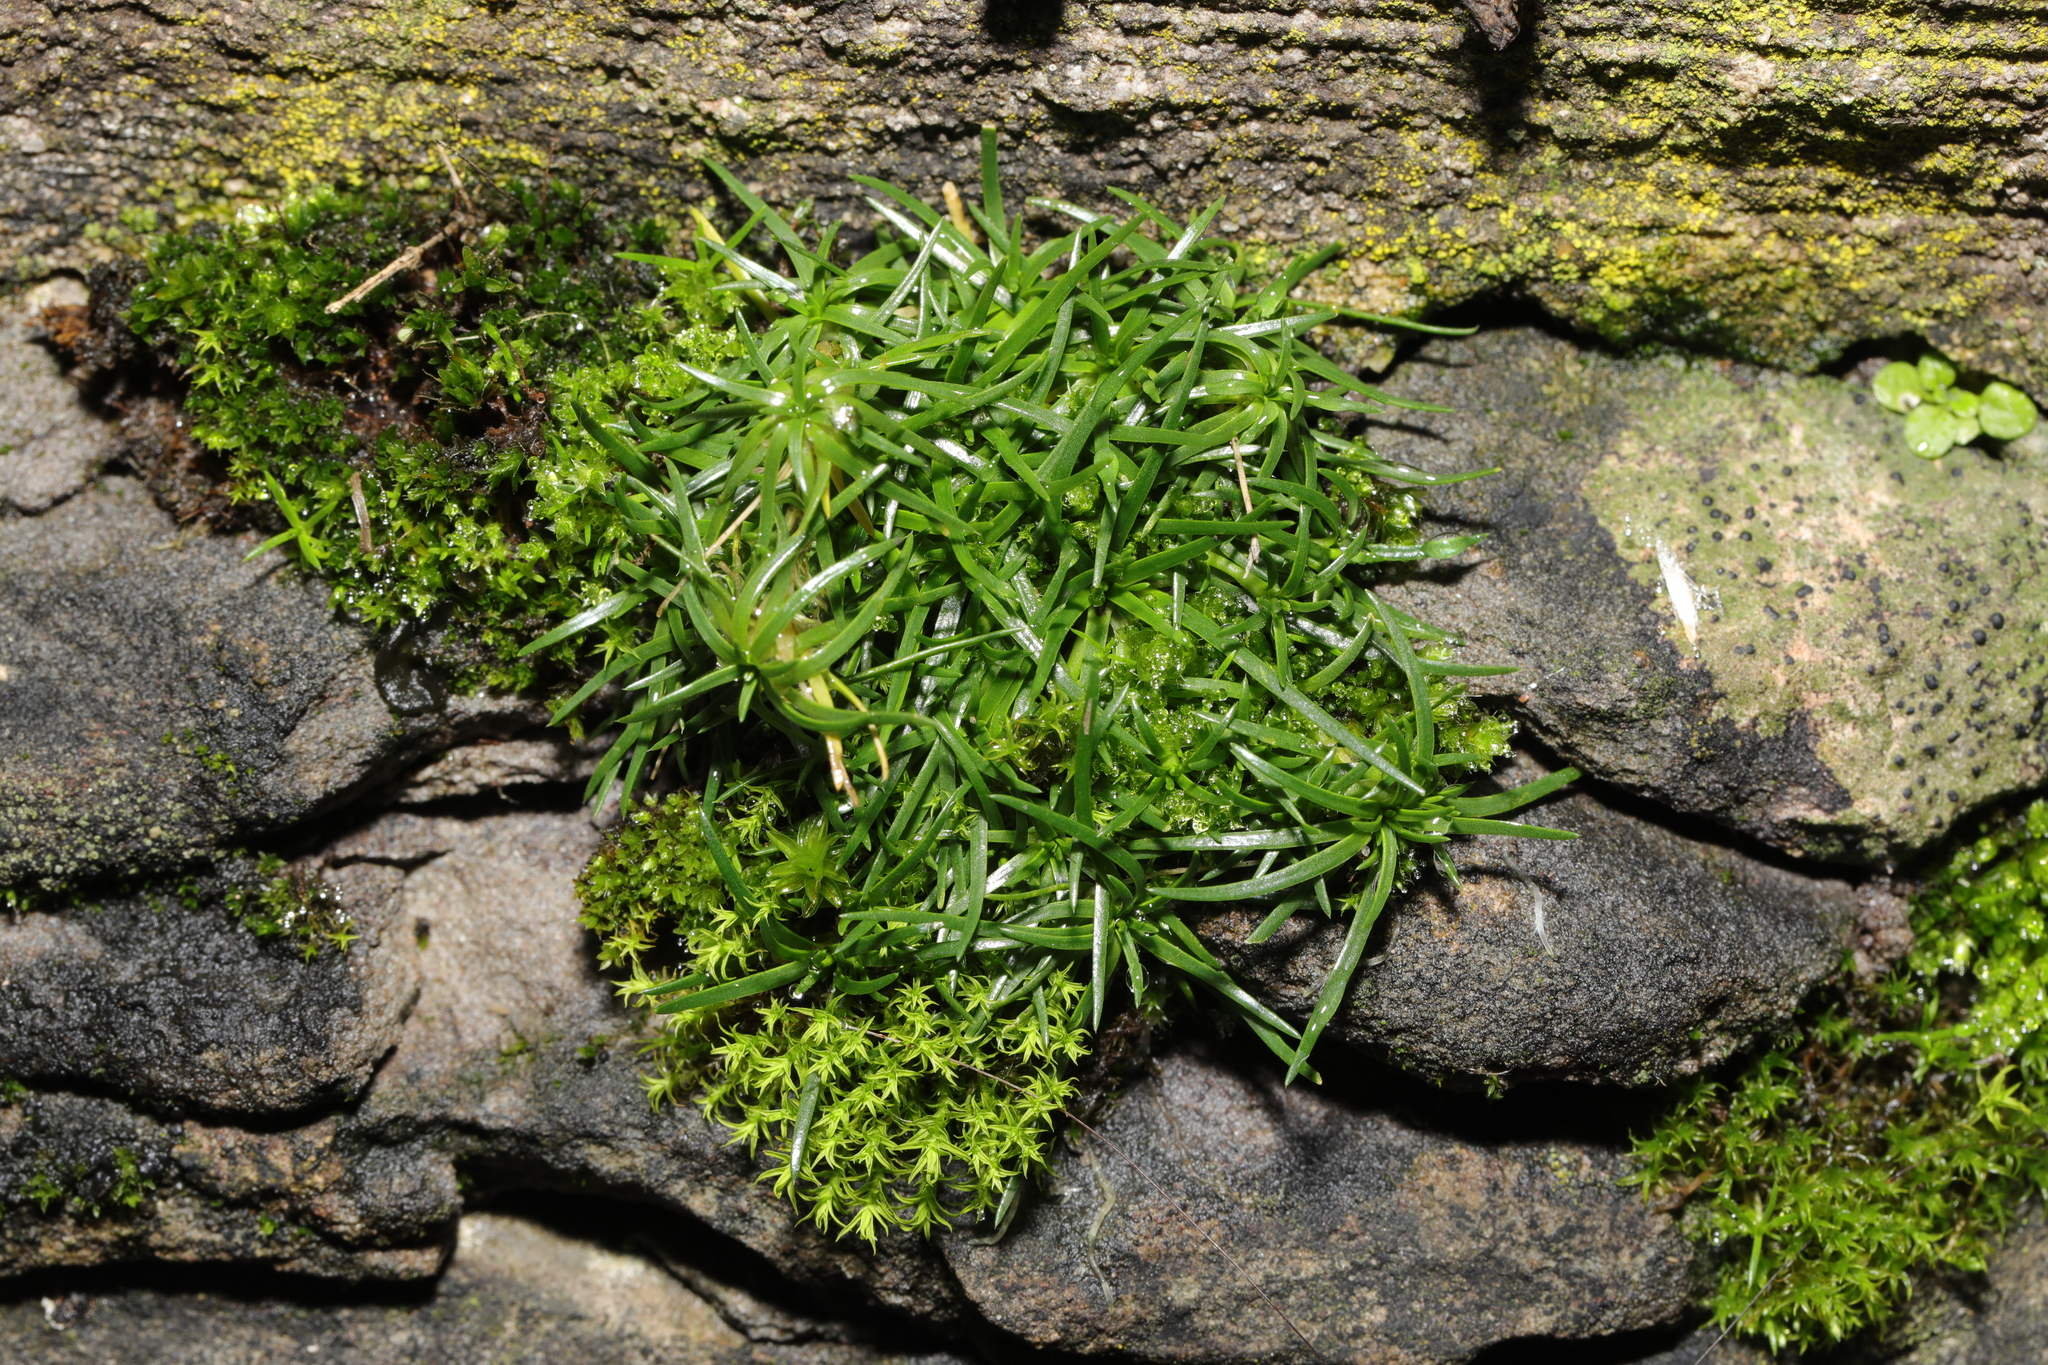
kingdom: Plantae
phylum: Tracheophyta
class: Magnoliopsida
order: Caryophyllales
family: Caryophyllaceae
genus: Sagina
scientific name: Sagina procumbens
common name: Procumbent pearlwort
